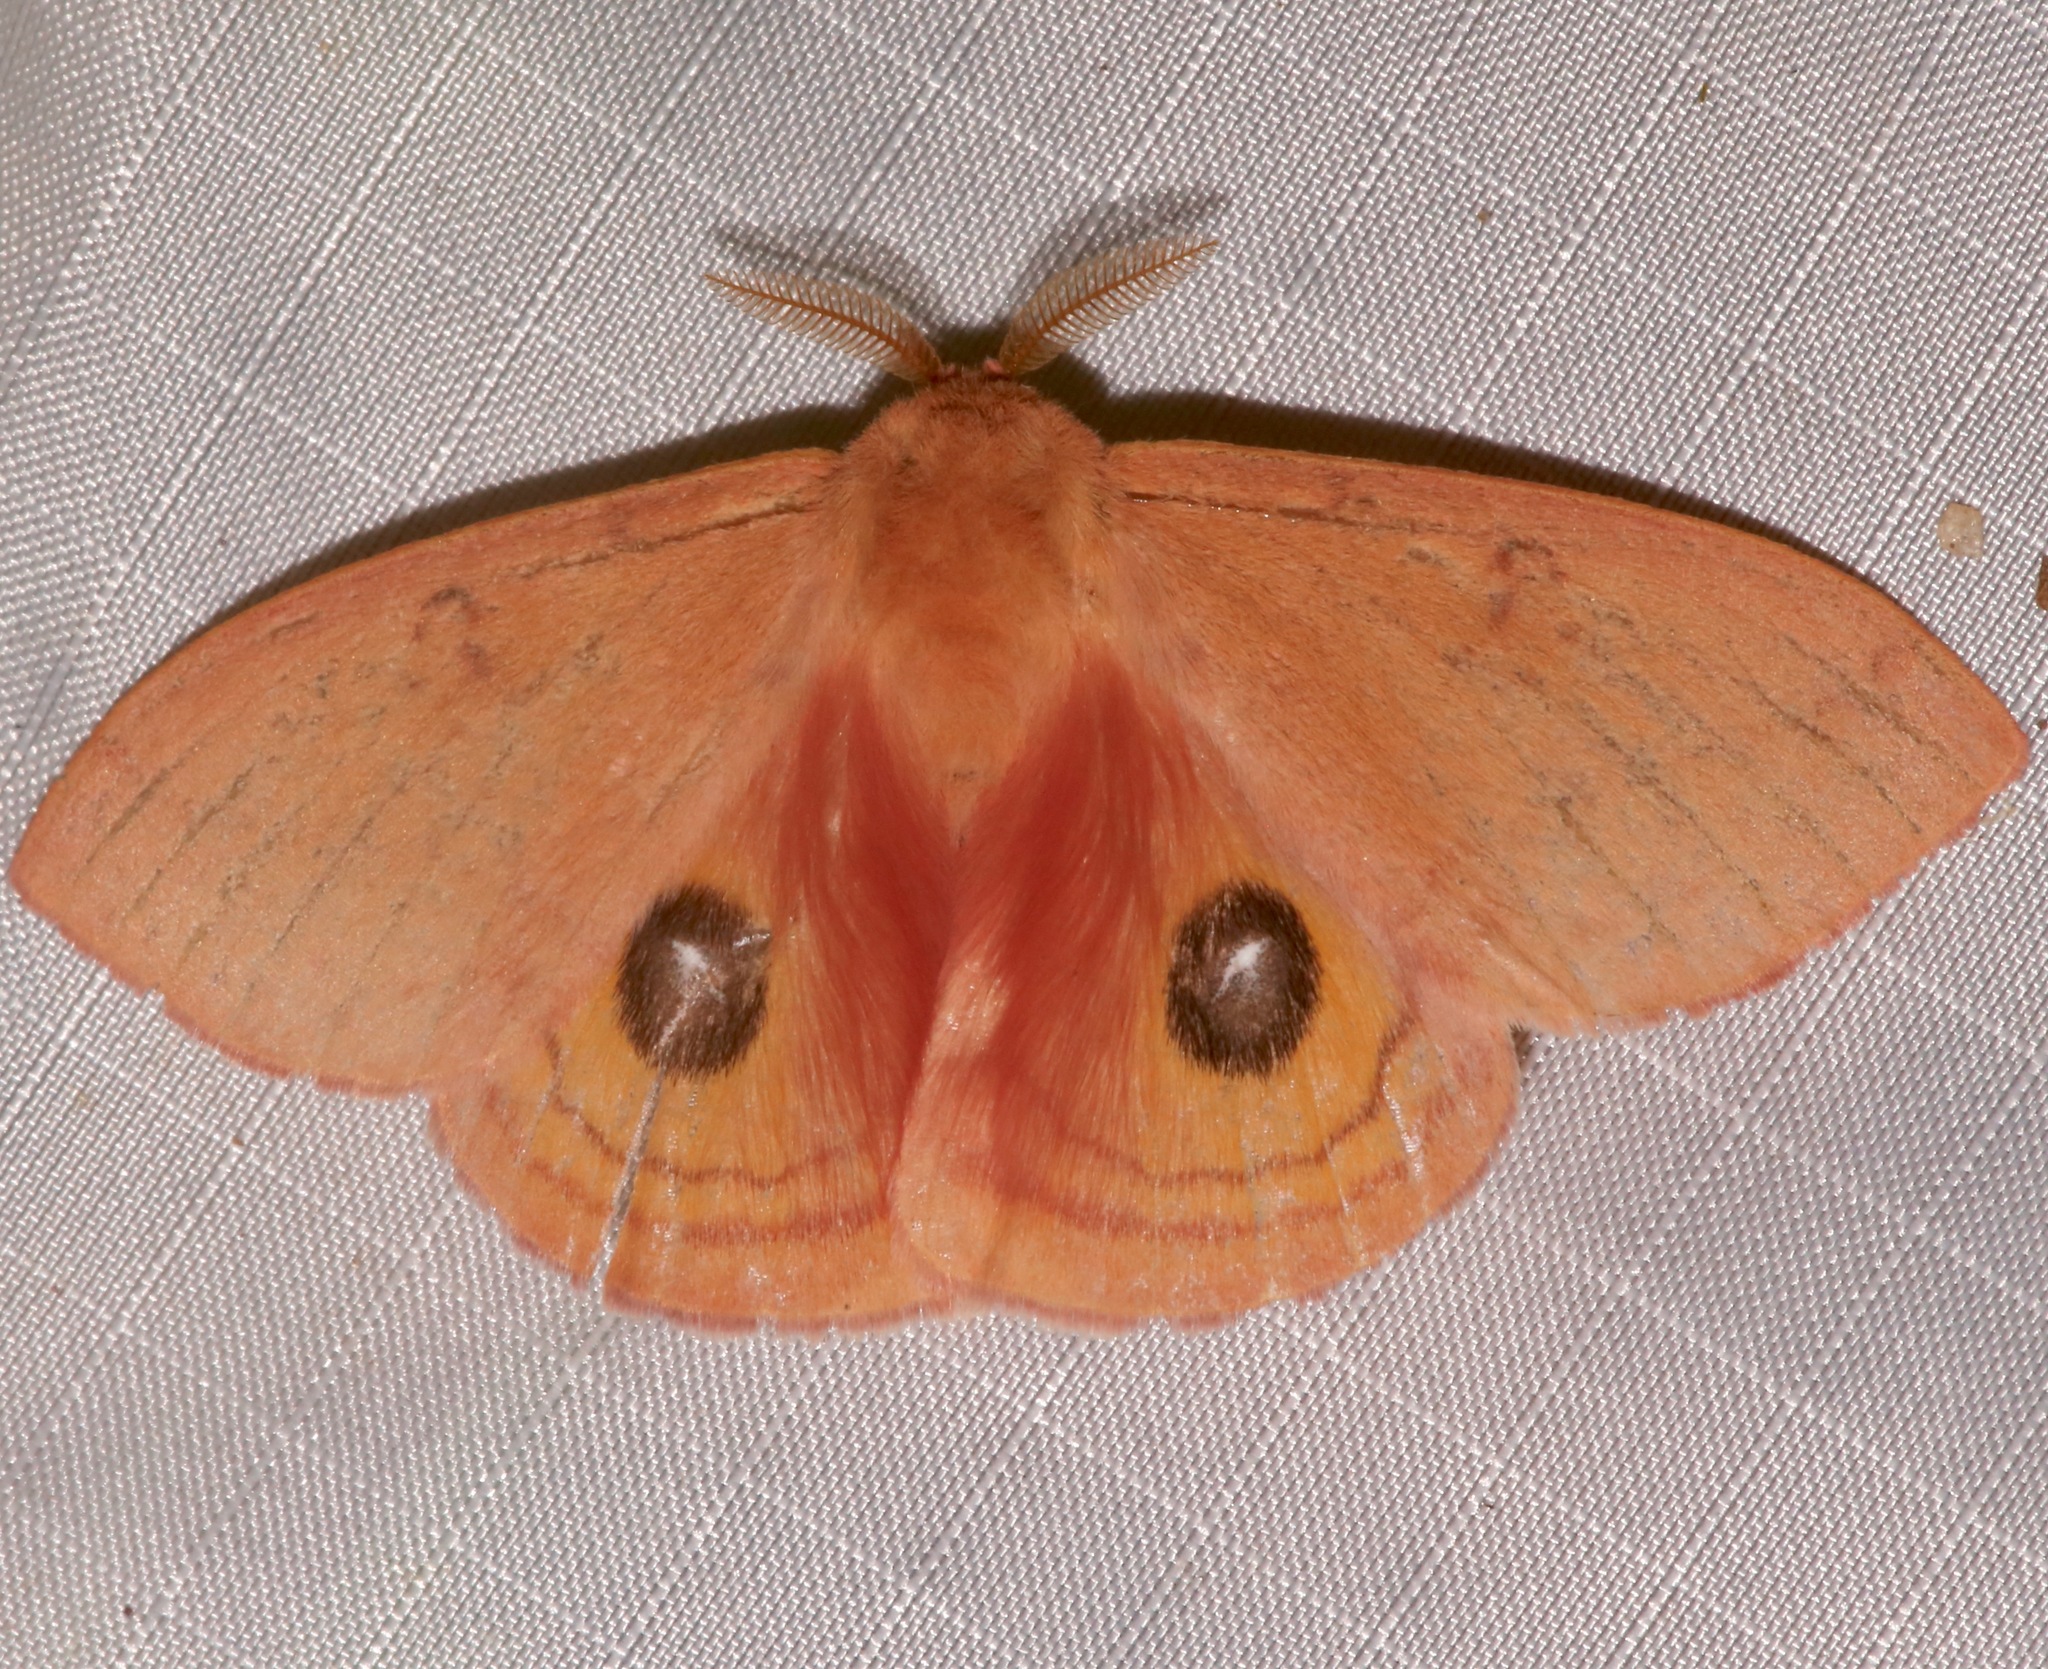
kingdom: Animalia
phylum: Arthropoda
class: Insecta
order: Lepidoptera
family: Saturniidae
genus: Automeris
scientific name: Automeris patagoniensis
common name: Patagonia eyed silkmoth
